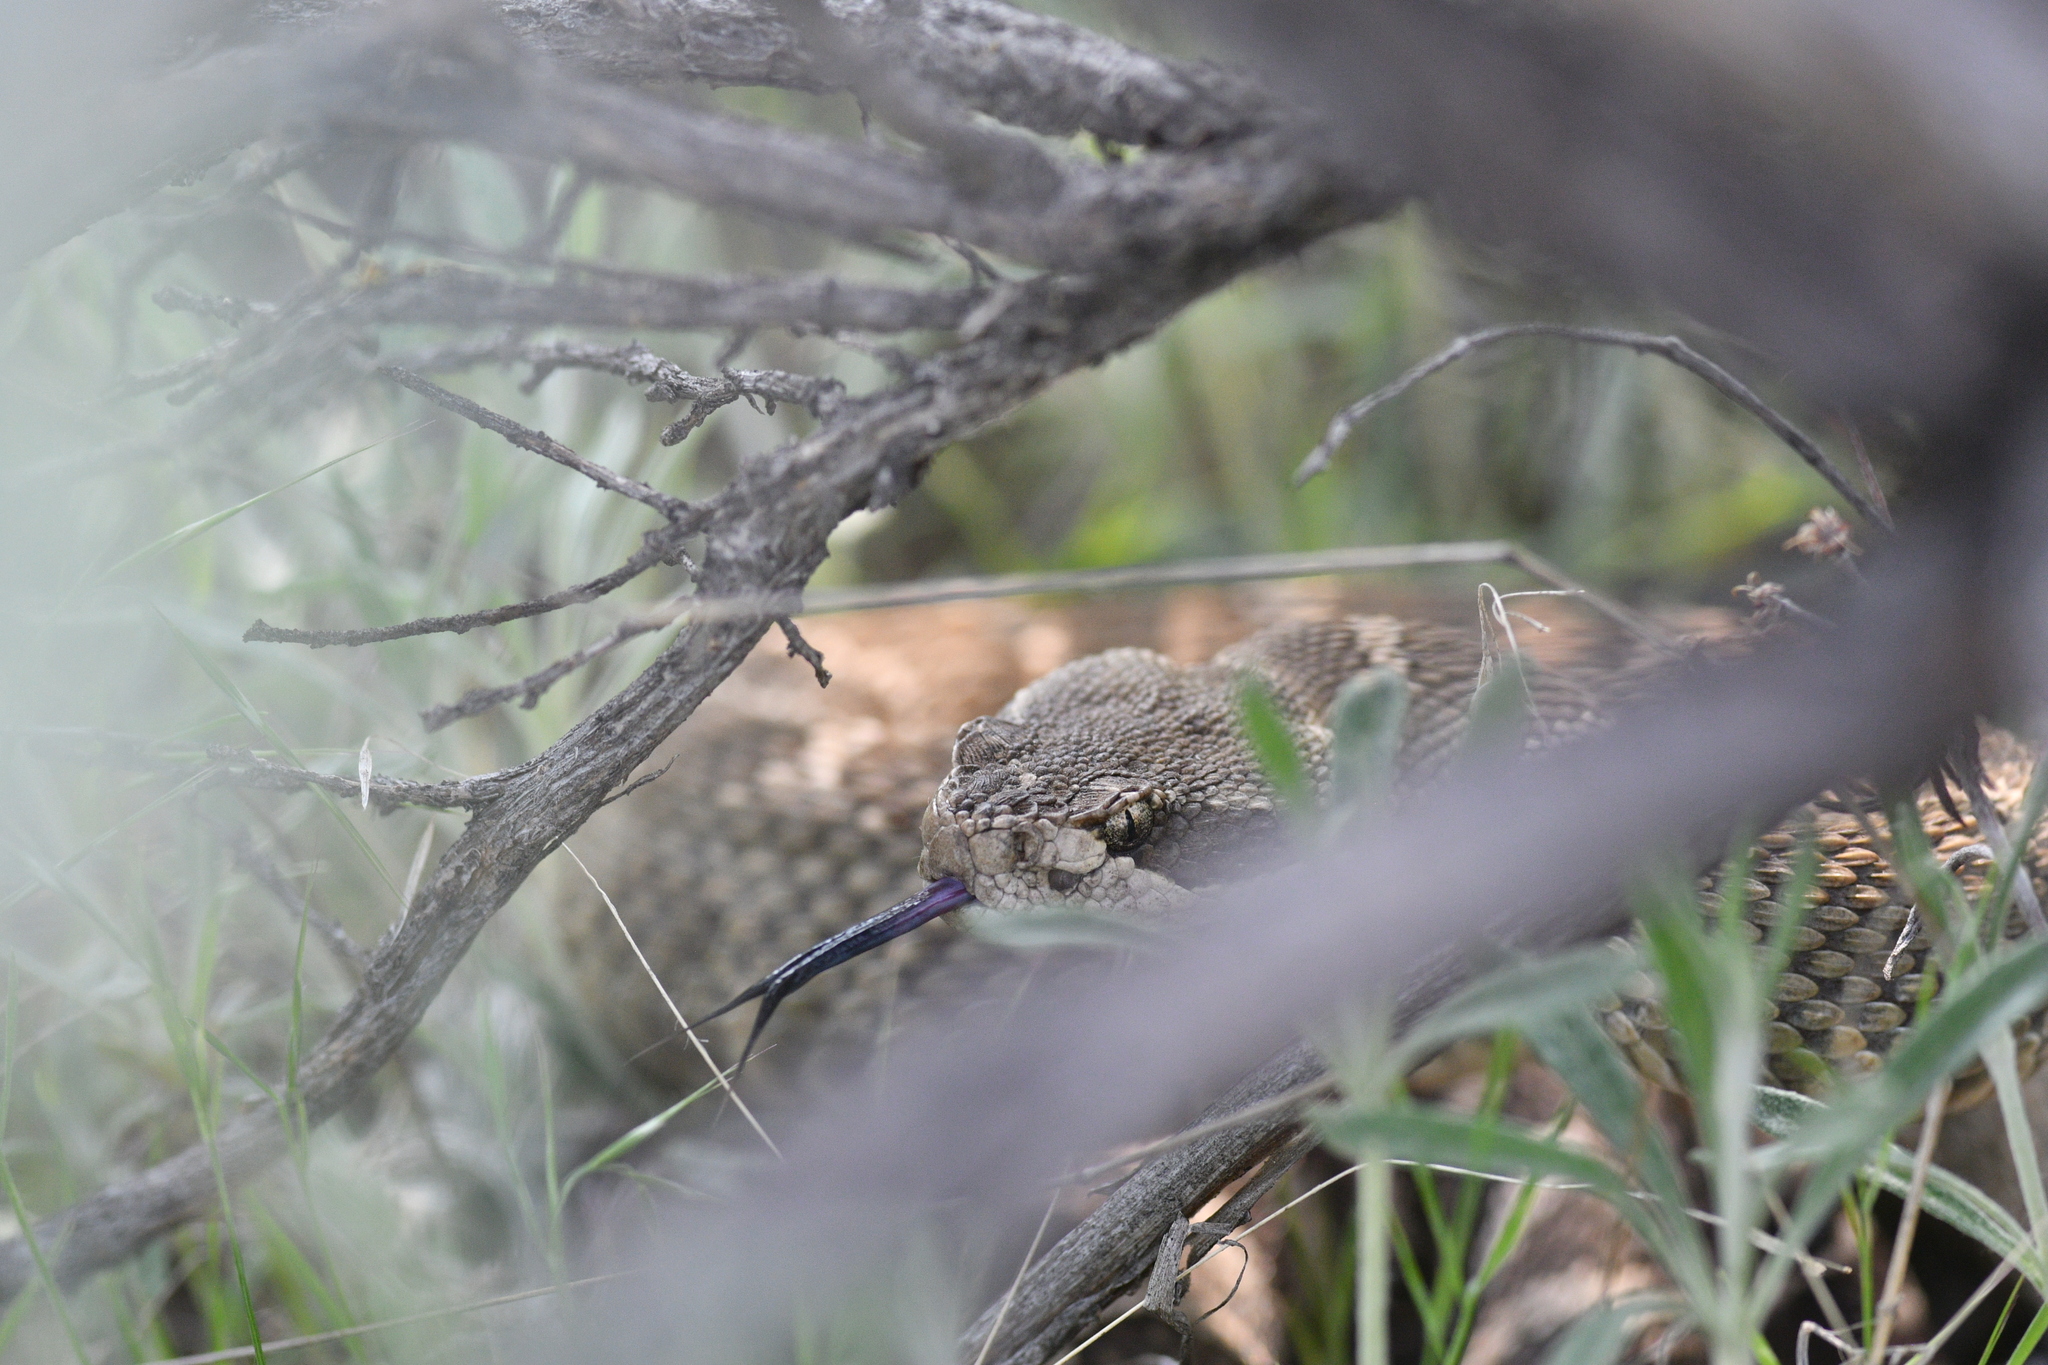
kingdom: Animalia
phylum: Chordata
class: Squamata
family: Viperidae
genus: Crotalus
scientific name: Crotalus oreganus
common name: Abyssus
